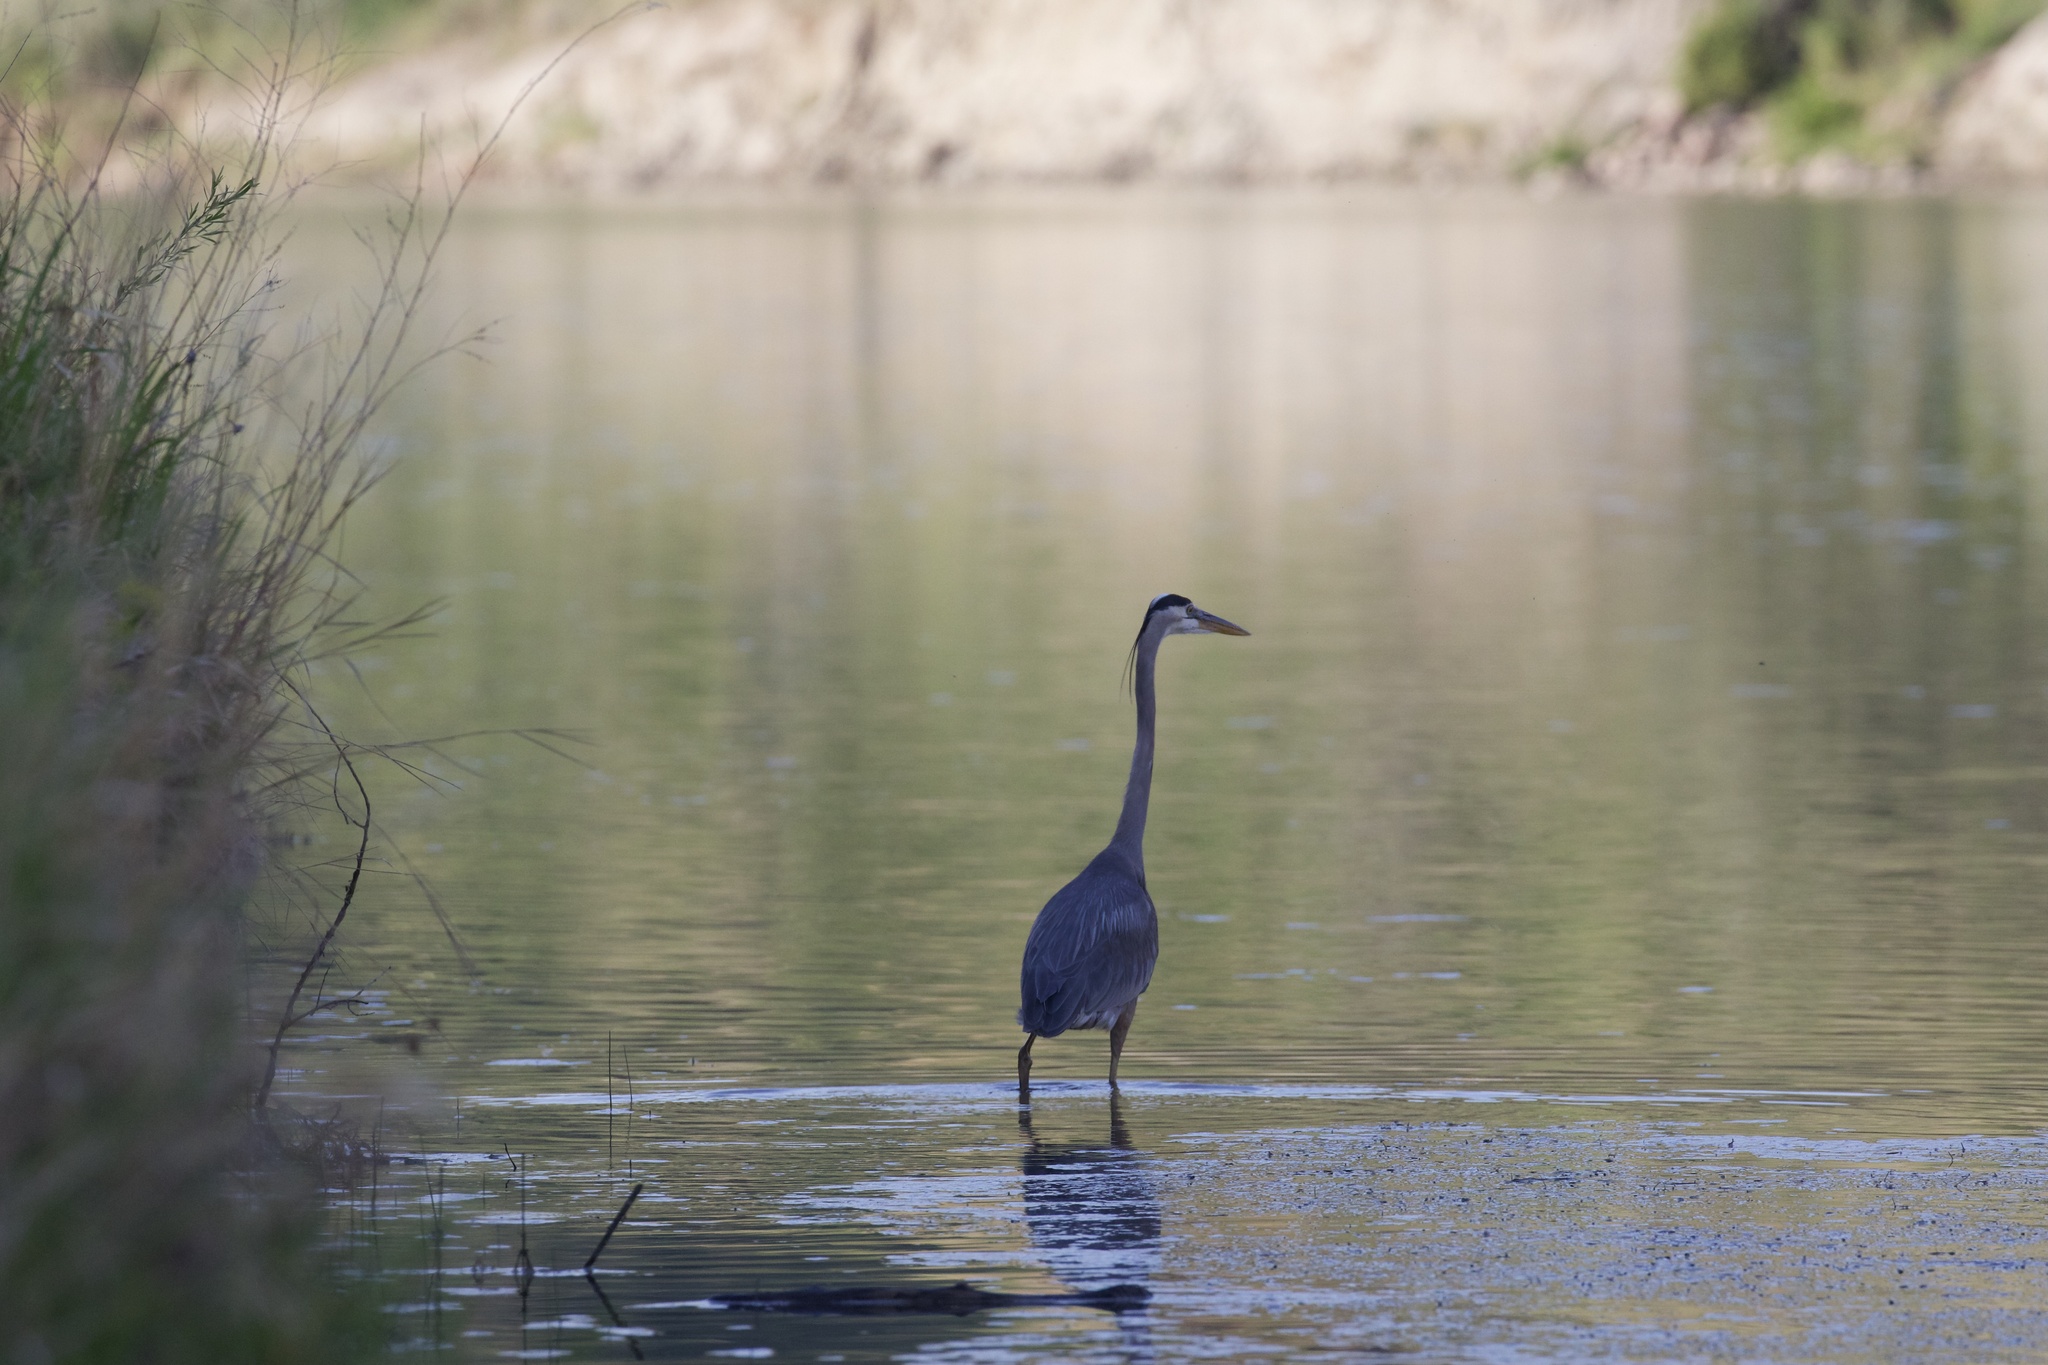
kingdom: Animalia
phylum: Chordata
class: Aves
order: Pelecaniformes
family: Ardeidae
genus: Ardea
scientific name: Ardea herodias
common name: Great blue heron
